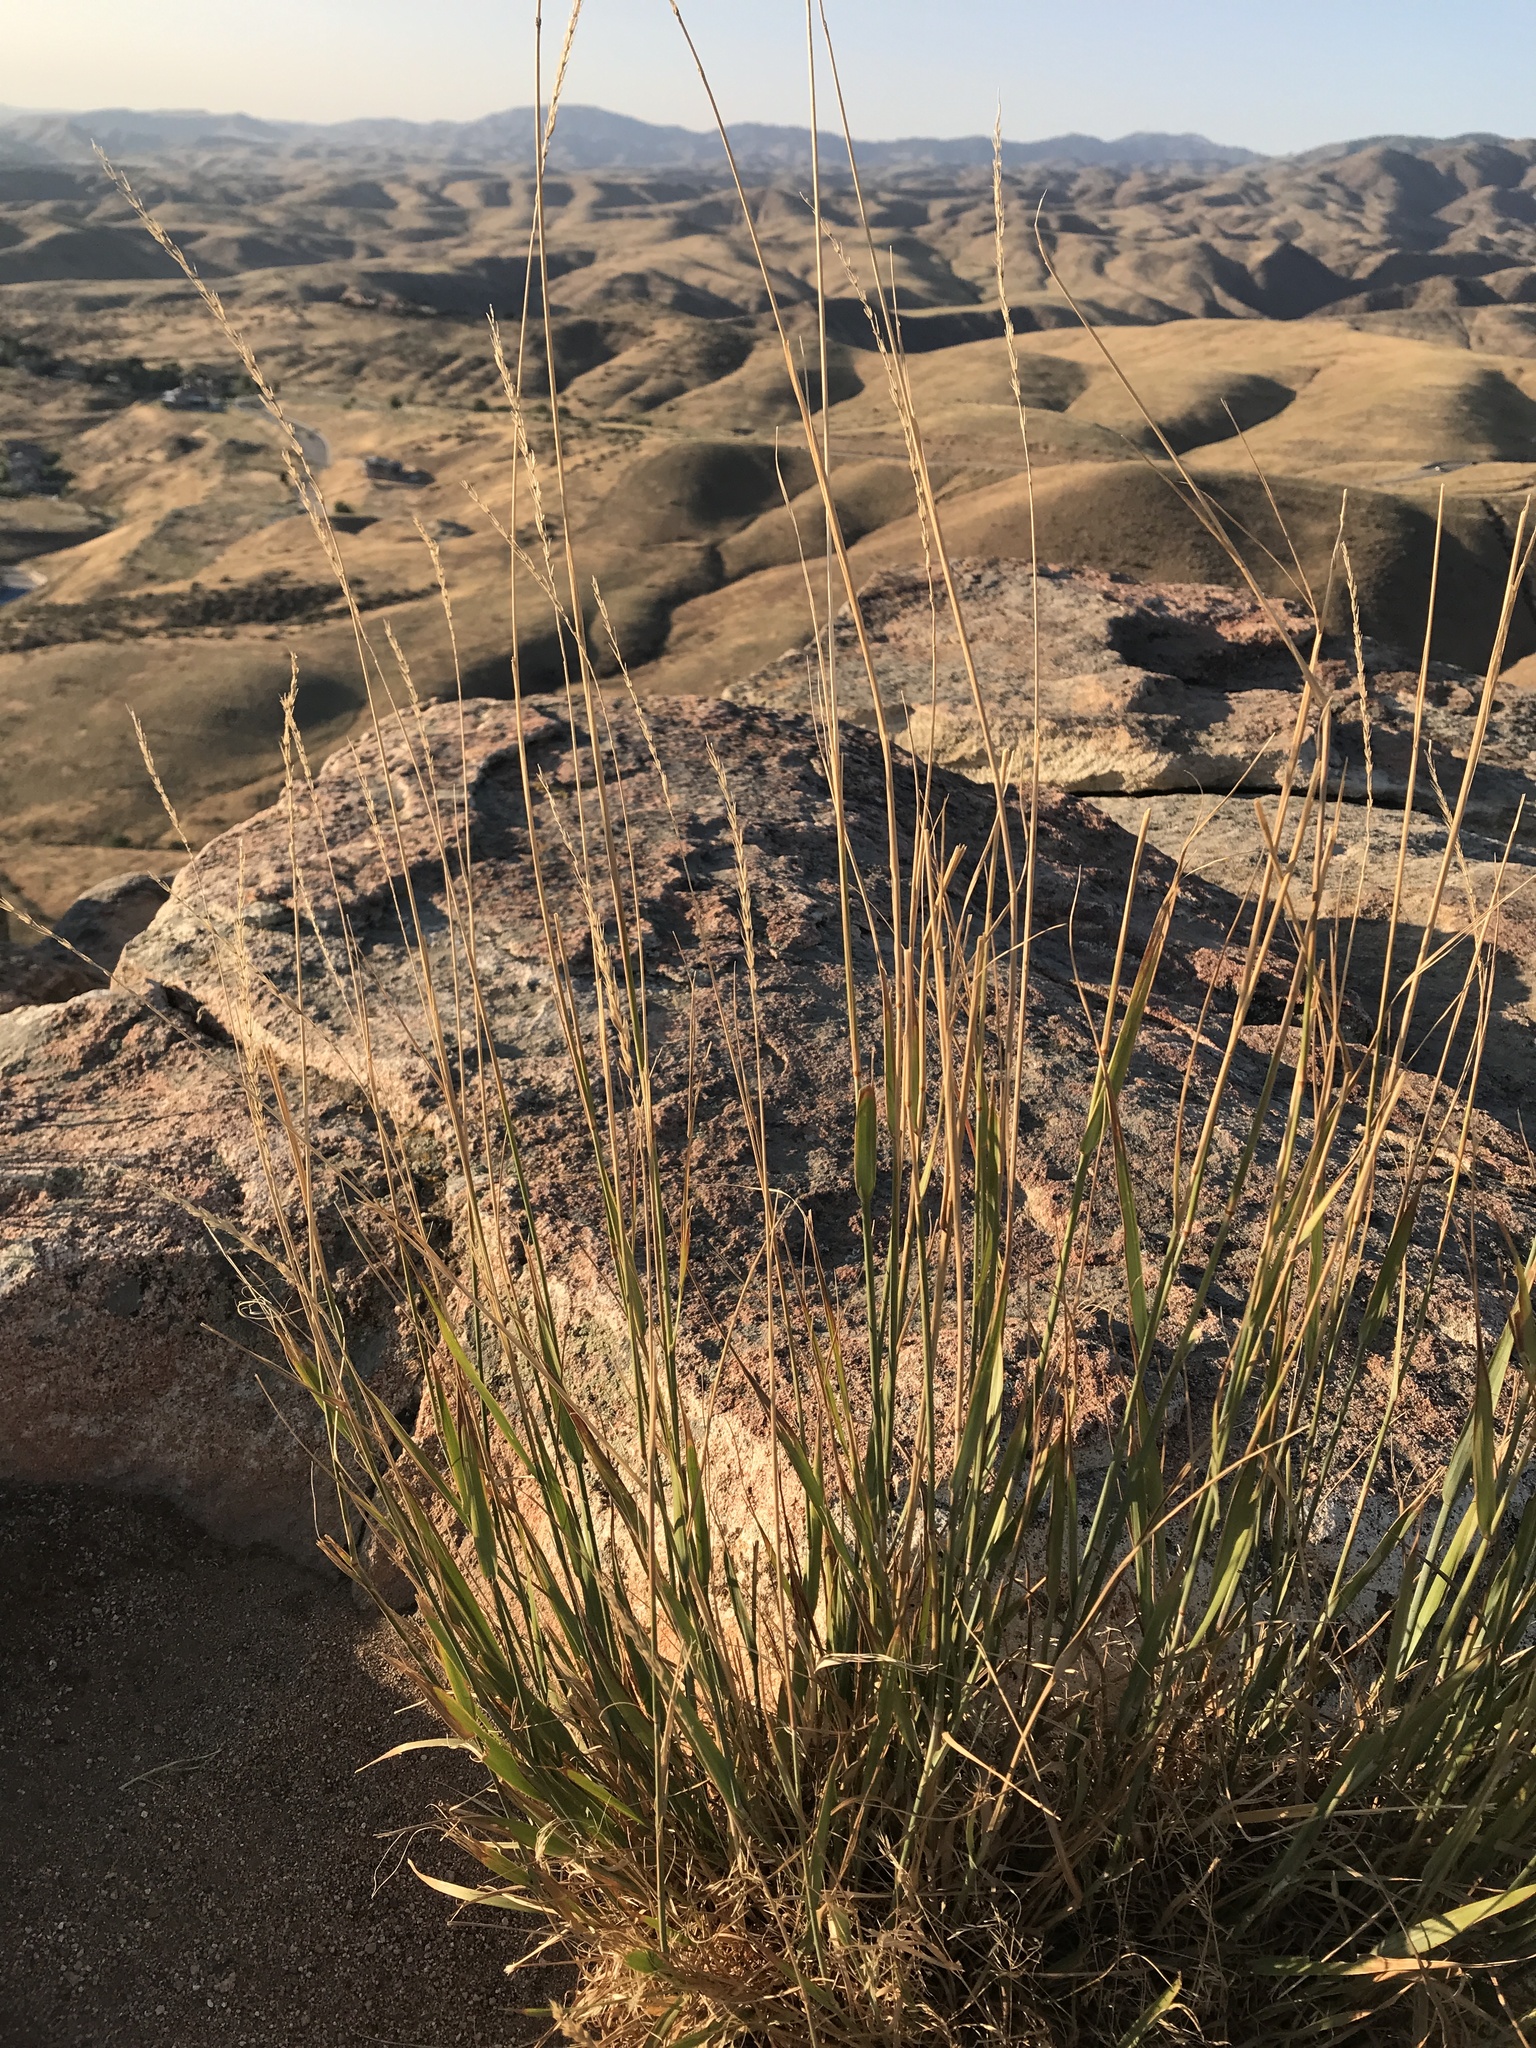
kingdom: Plantae
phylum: Tracheophyta
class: Liliopsida
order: Poales
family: Poaceae
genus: Leymus
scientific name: Leymus cinereus
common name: Basin wild rye
